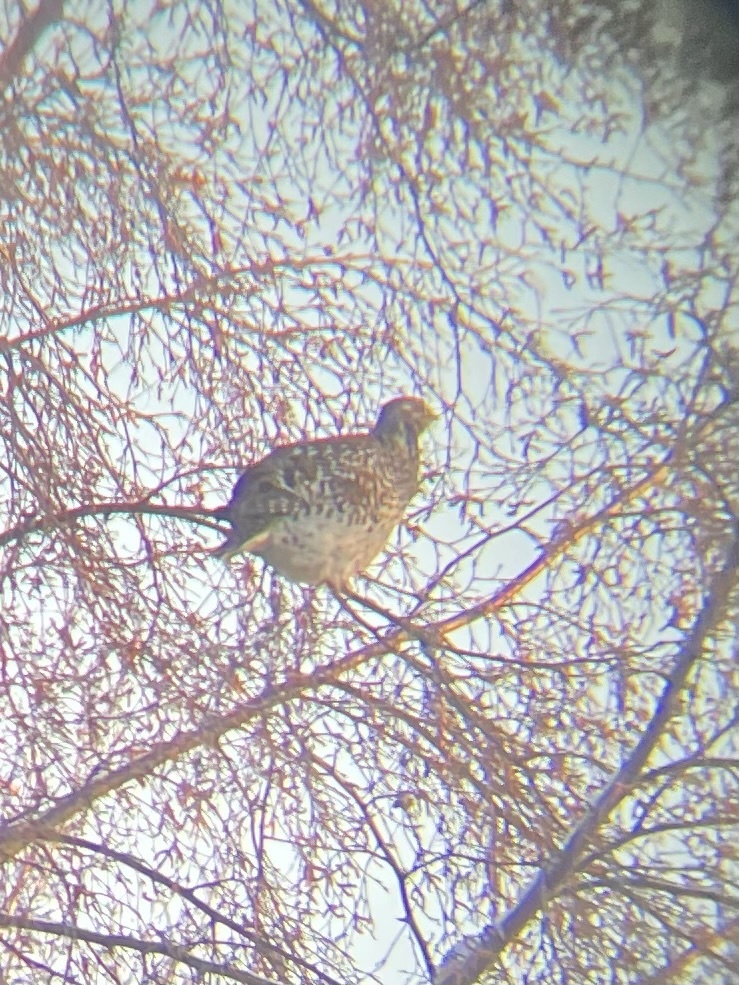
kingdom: Animalia
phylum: Chordata
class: Aves
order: Galliformes
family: Phasianidae
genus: Tympanuchus
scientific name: Tympanuchus phasianellus
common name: Sharp-tailed grouse
